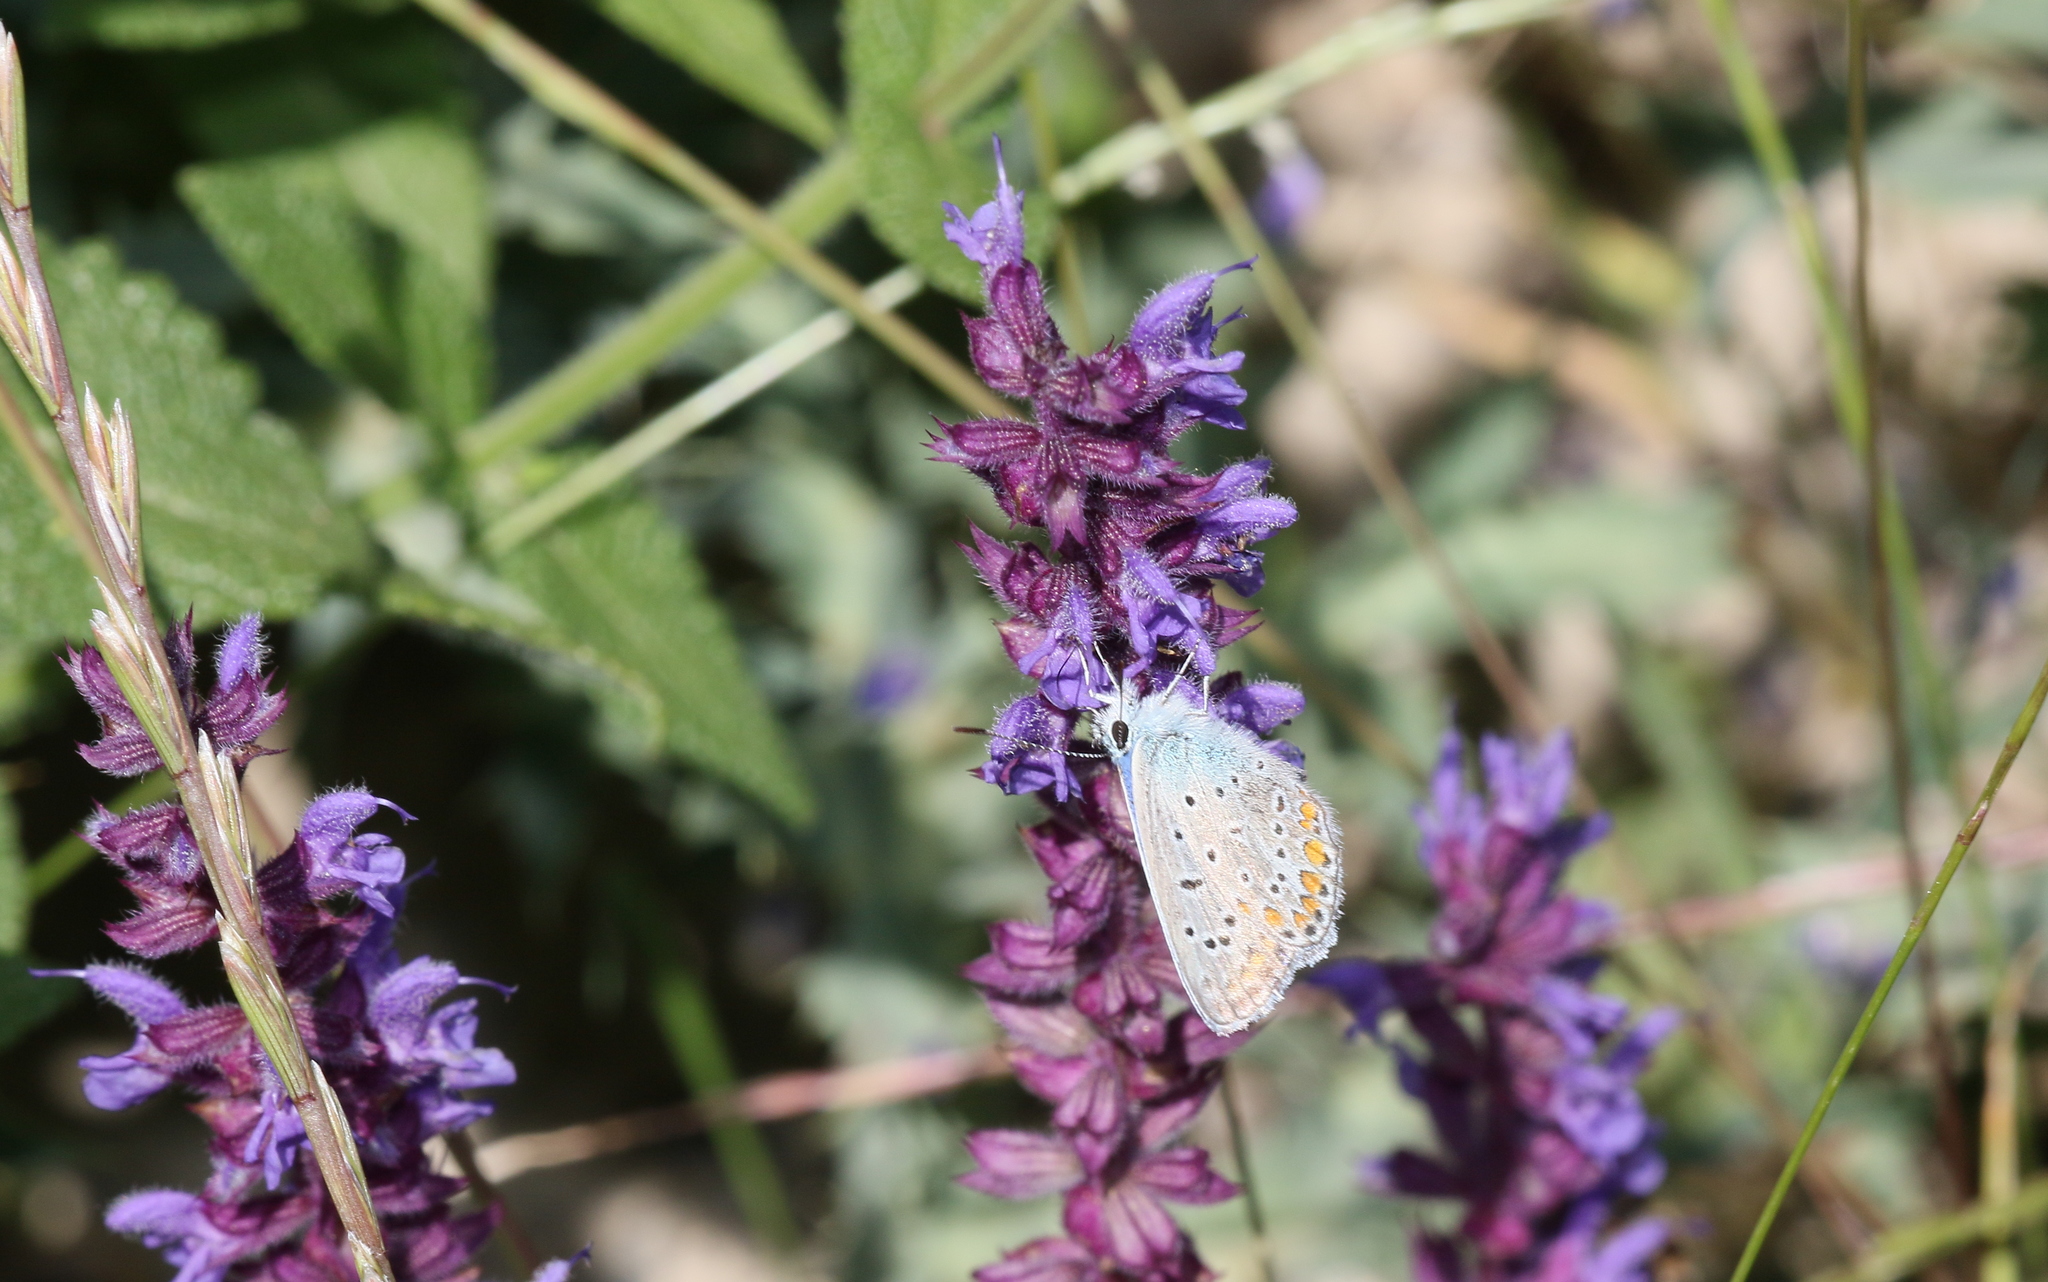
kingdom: Animalia
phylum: Arthropoda
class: Insecta
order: Lepidoptera
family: Lycaenidae
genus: Polyommatus
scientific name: Polyommatus icarus
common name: Common blue
